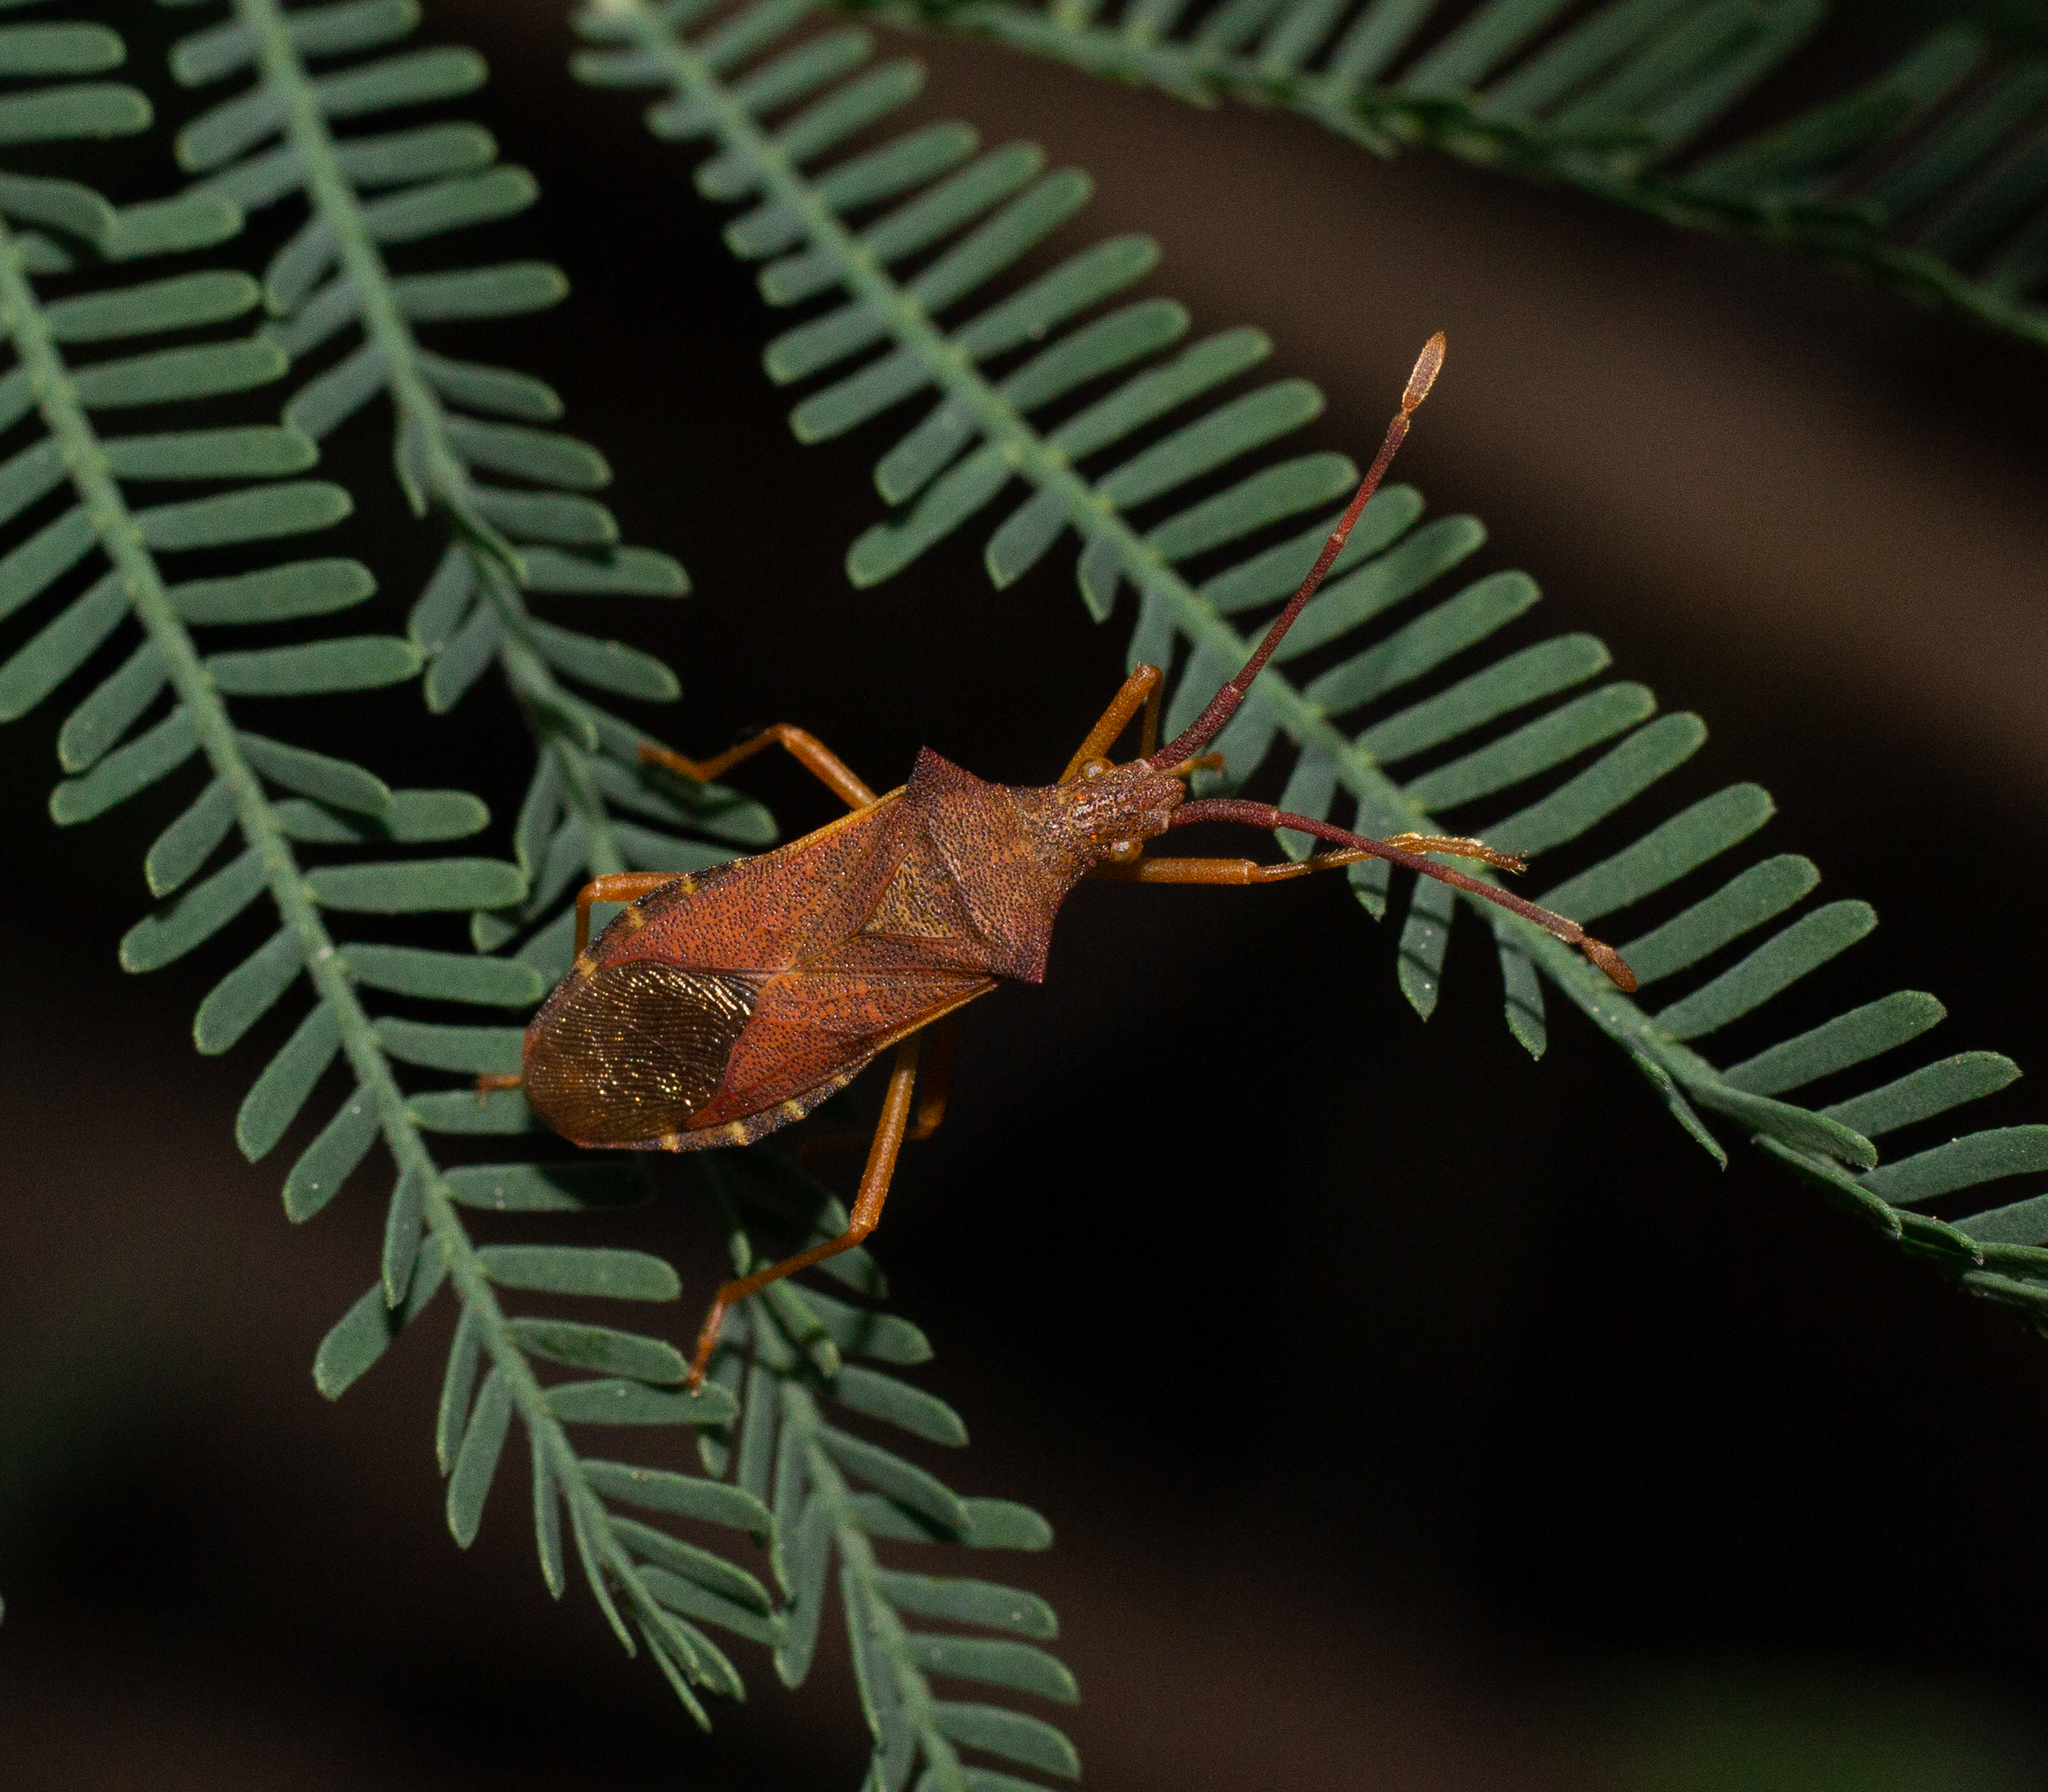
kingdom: Animalia
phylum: Arthropoda
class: Insecta
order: Hemiptera
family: Coreidae
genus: Gonocerus
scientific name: Gonocerus acuteangulatus
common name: Box bug
